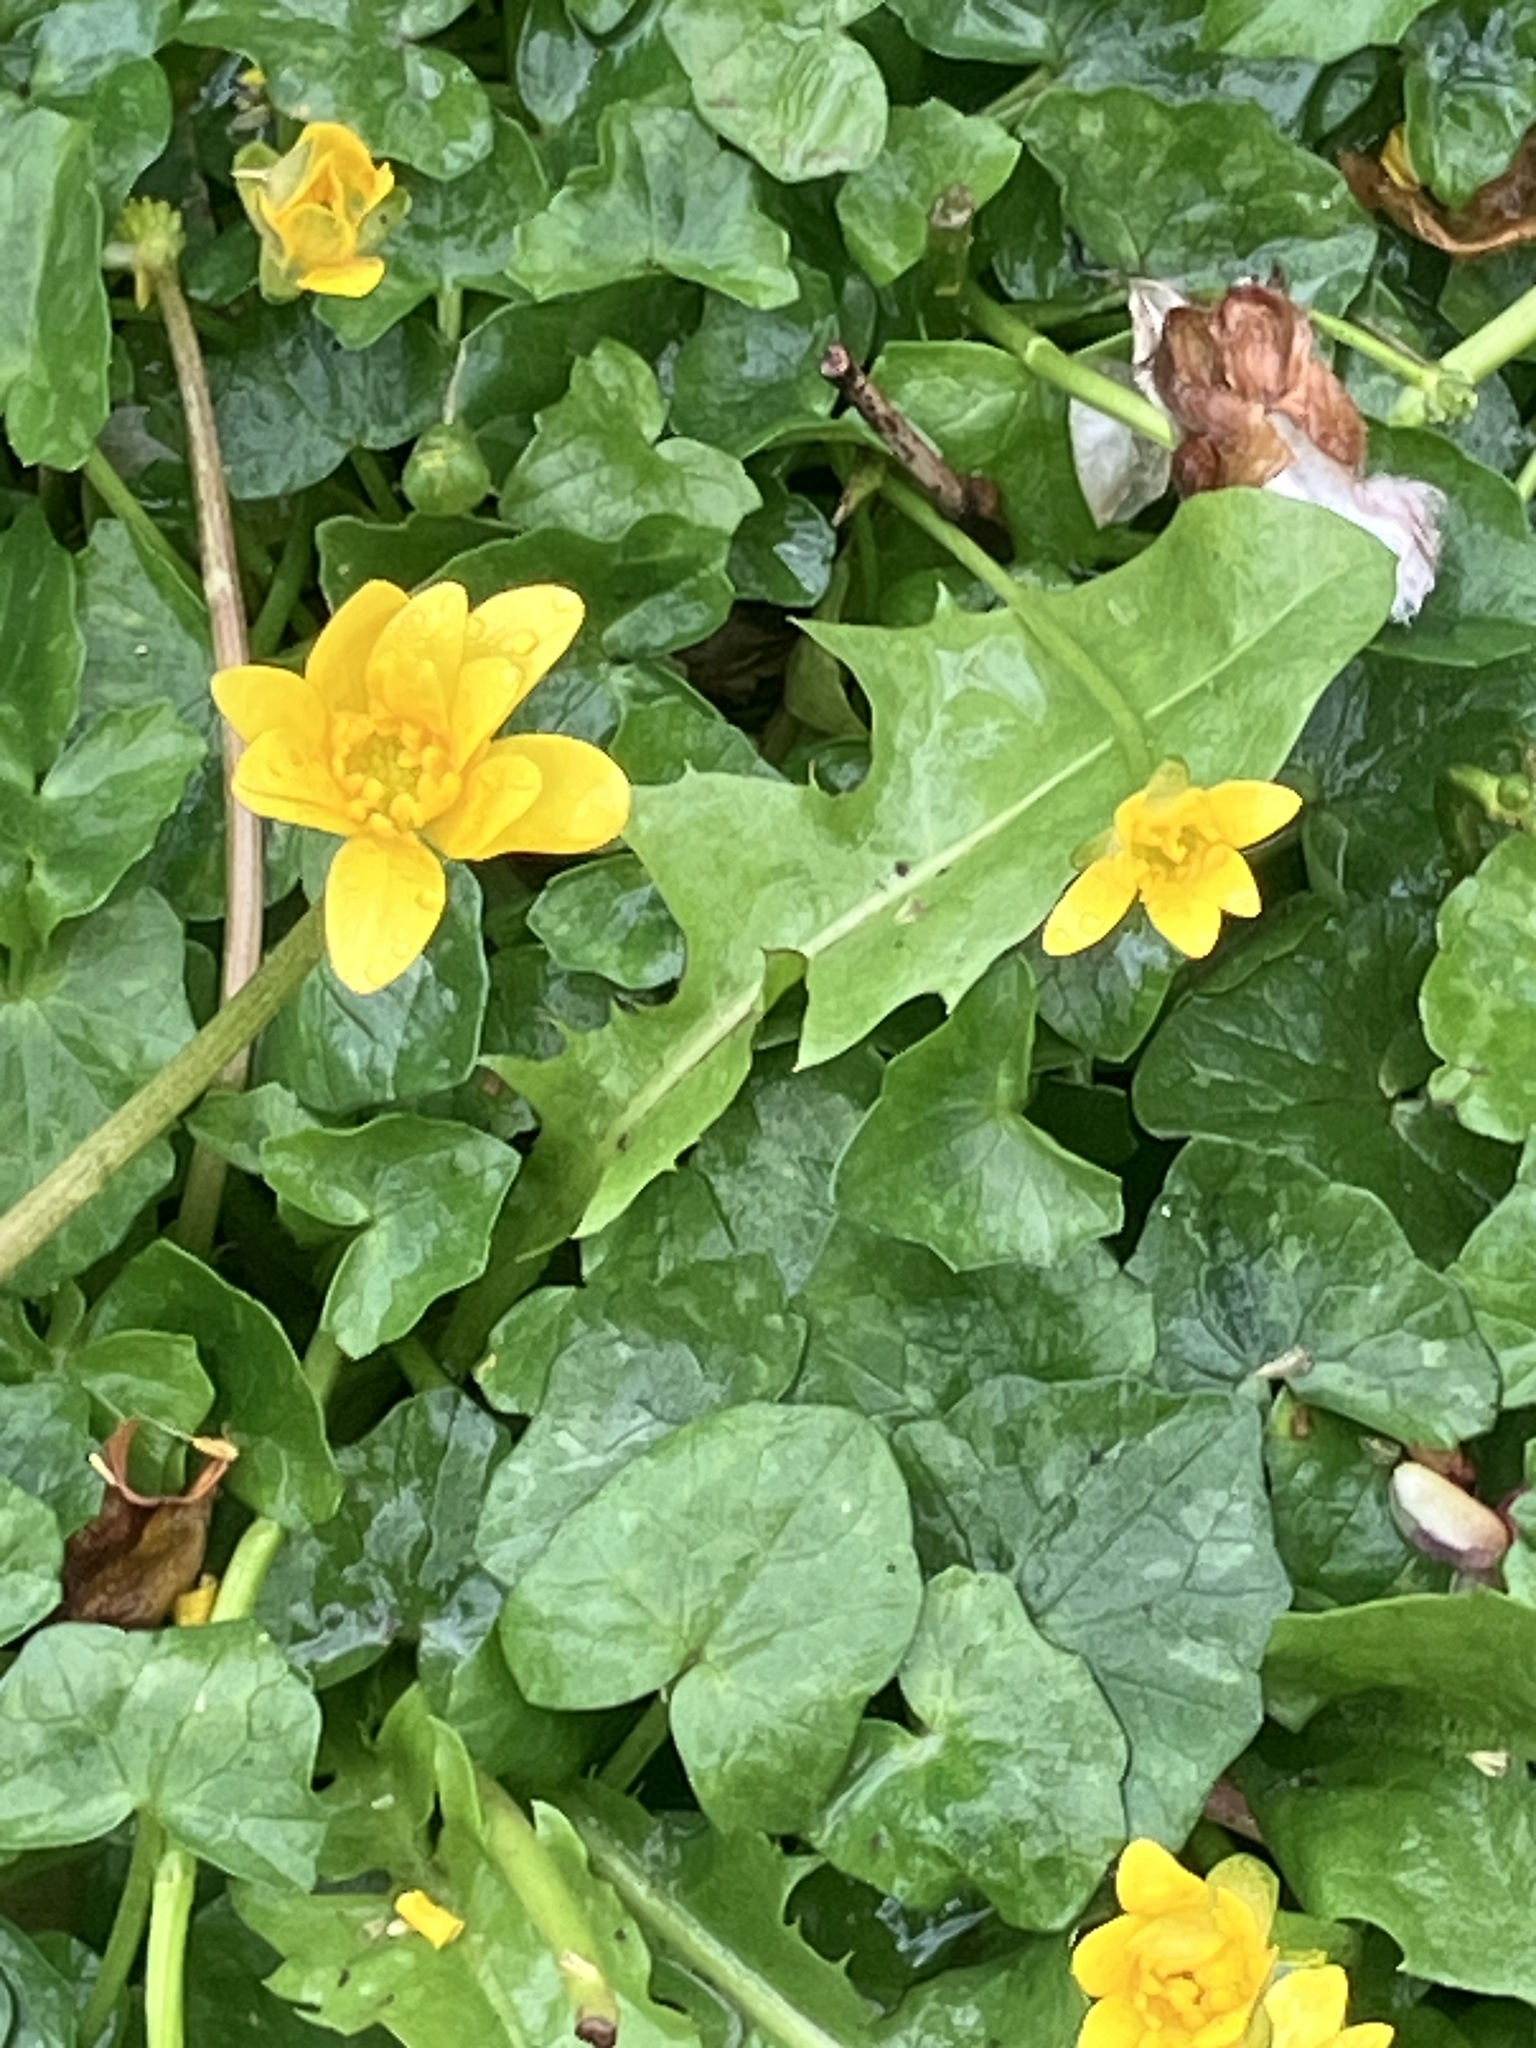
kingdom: Plantae
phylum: Tracheophyta
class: Magnoliopsida
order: Ranunculales
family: Ranunculaceae
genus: Ficaria
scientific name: Ficaria verna
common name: Lesser celandine
